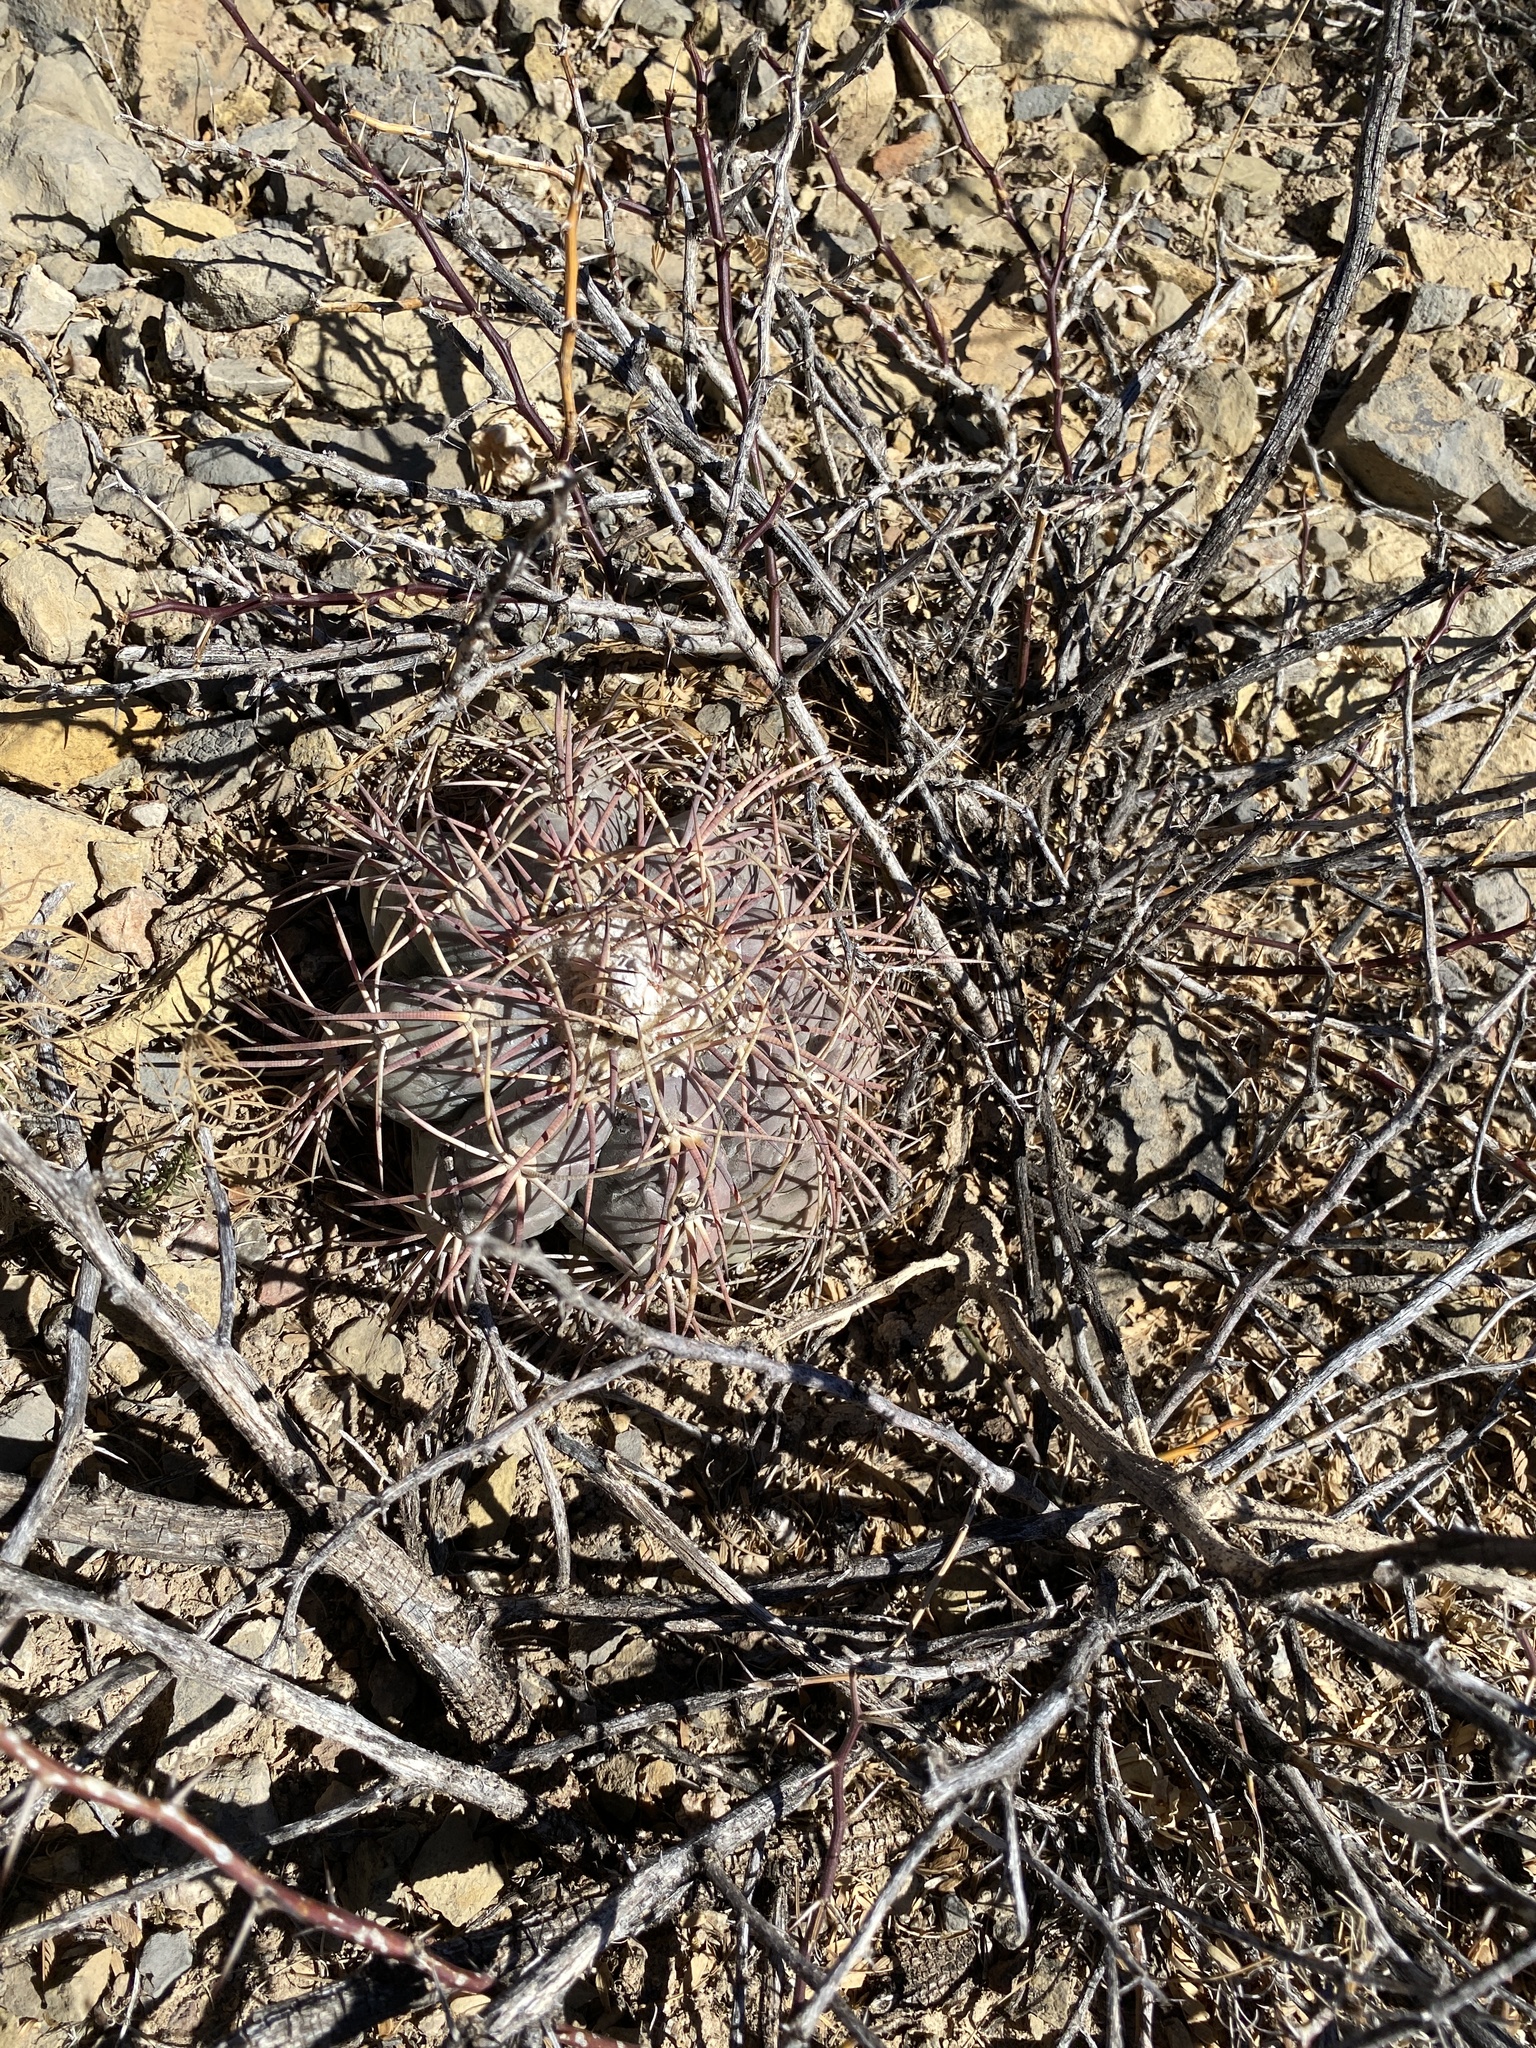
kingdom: Plantae
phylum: Tracheophyta
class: Magnoliopsida
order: Caryophyllales
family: Cactaceae
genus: Echinocactus
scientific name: Echinocactus horizonthalonius
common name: Devilshead
